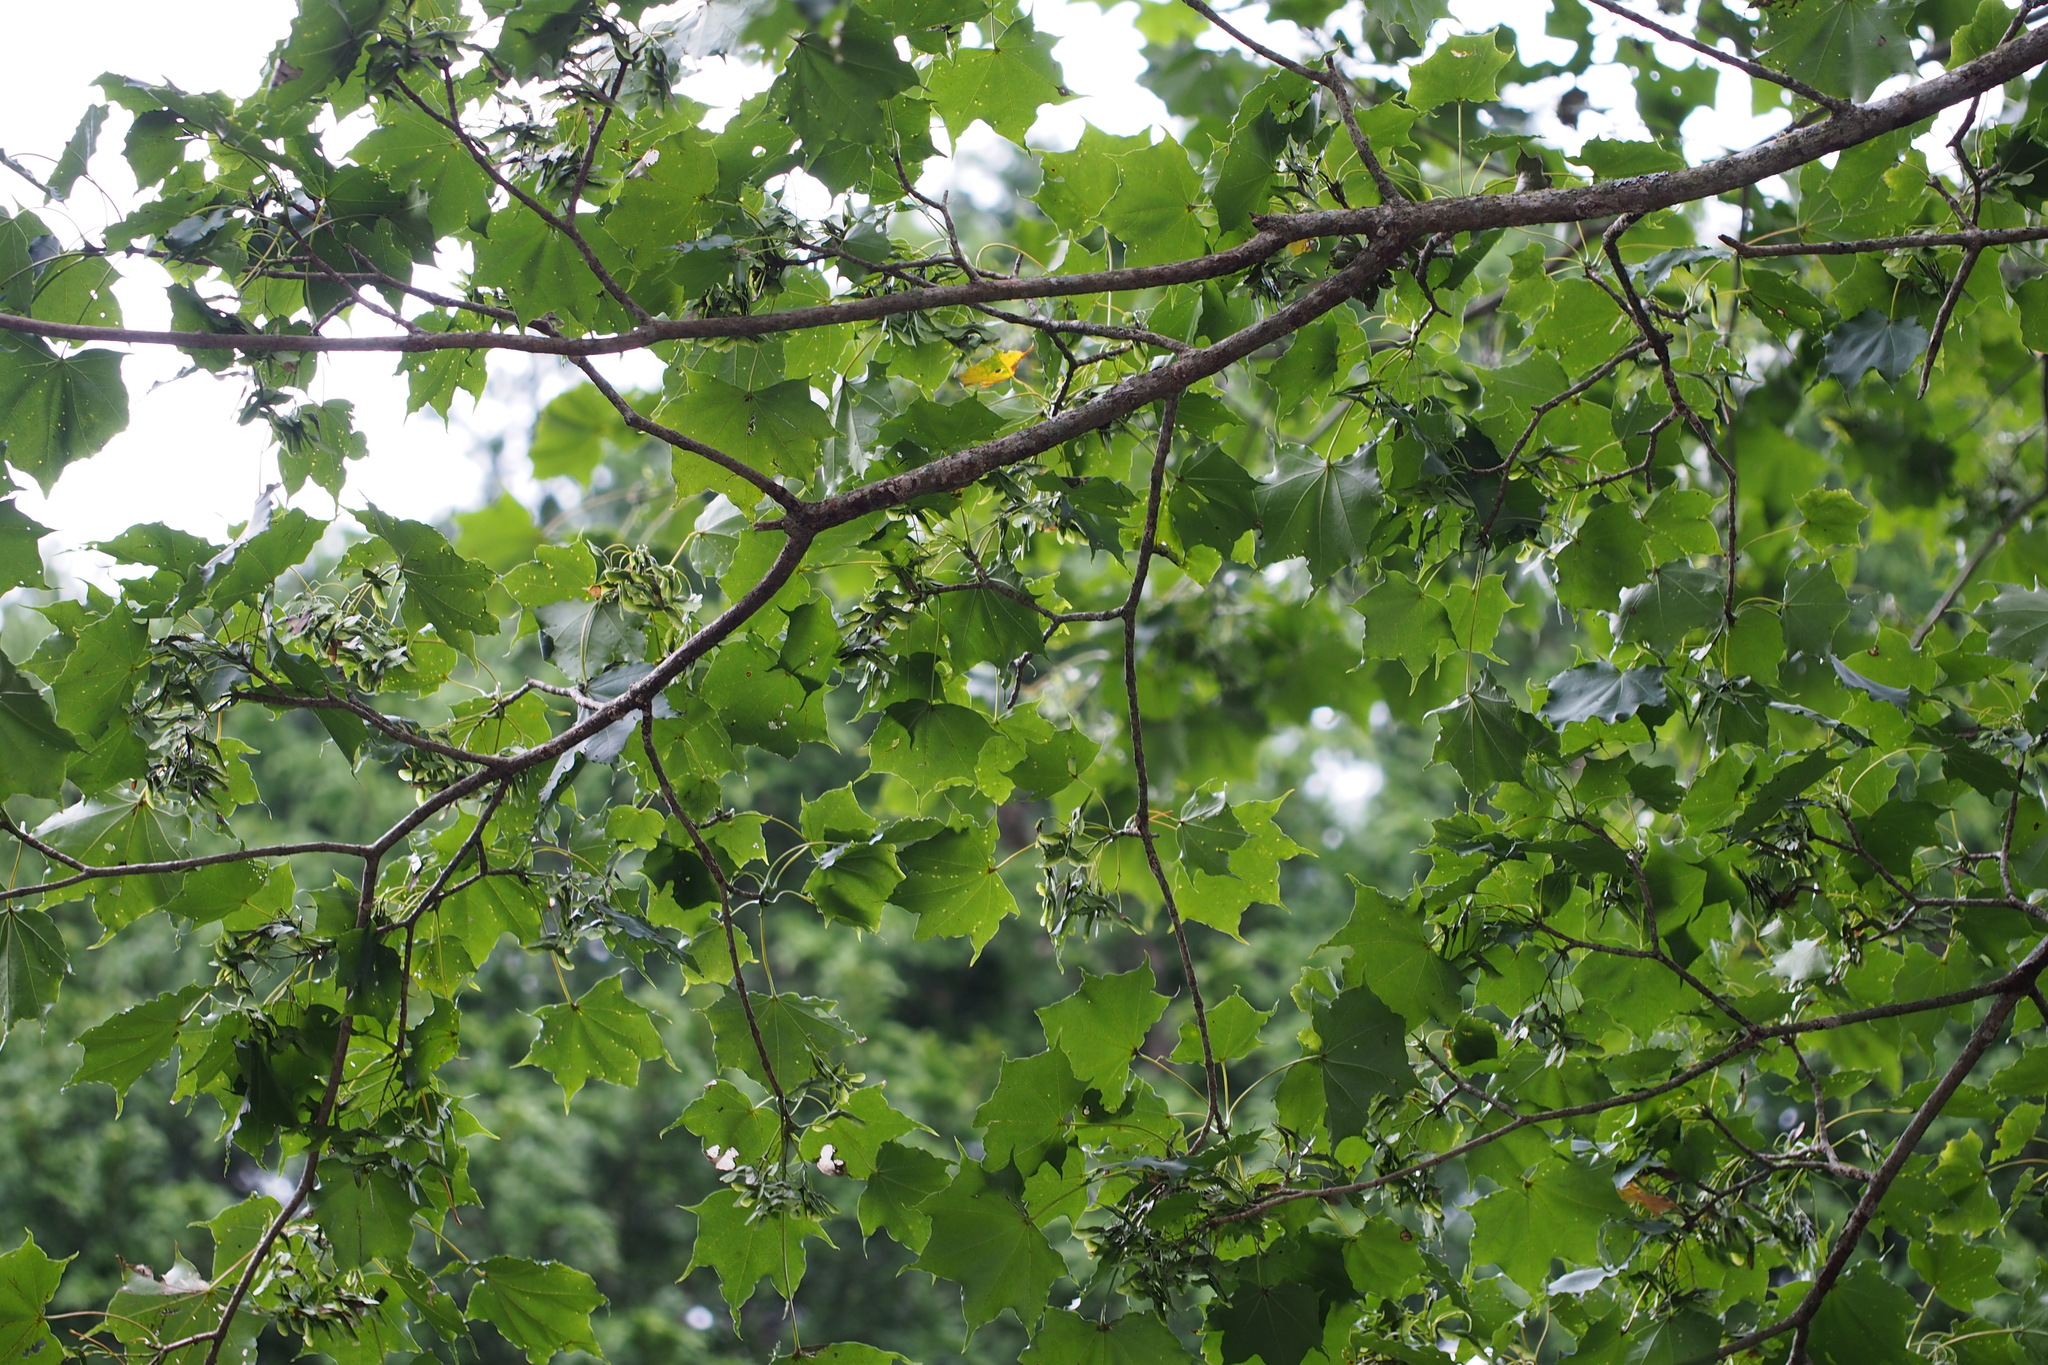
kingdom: Plantae
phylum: Tracheophyta
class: Magnoliopsida
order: Sapindales
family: Sapindaceae
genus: Acer
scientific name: Acer pictum
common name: The painted maple
